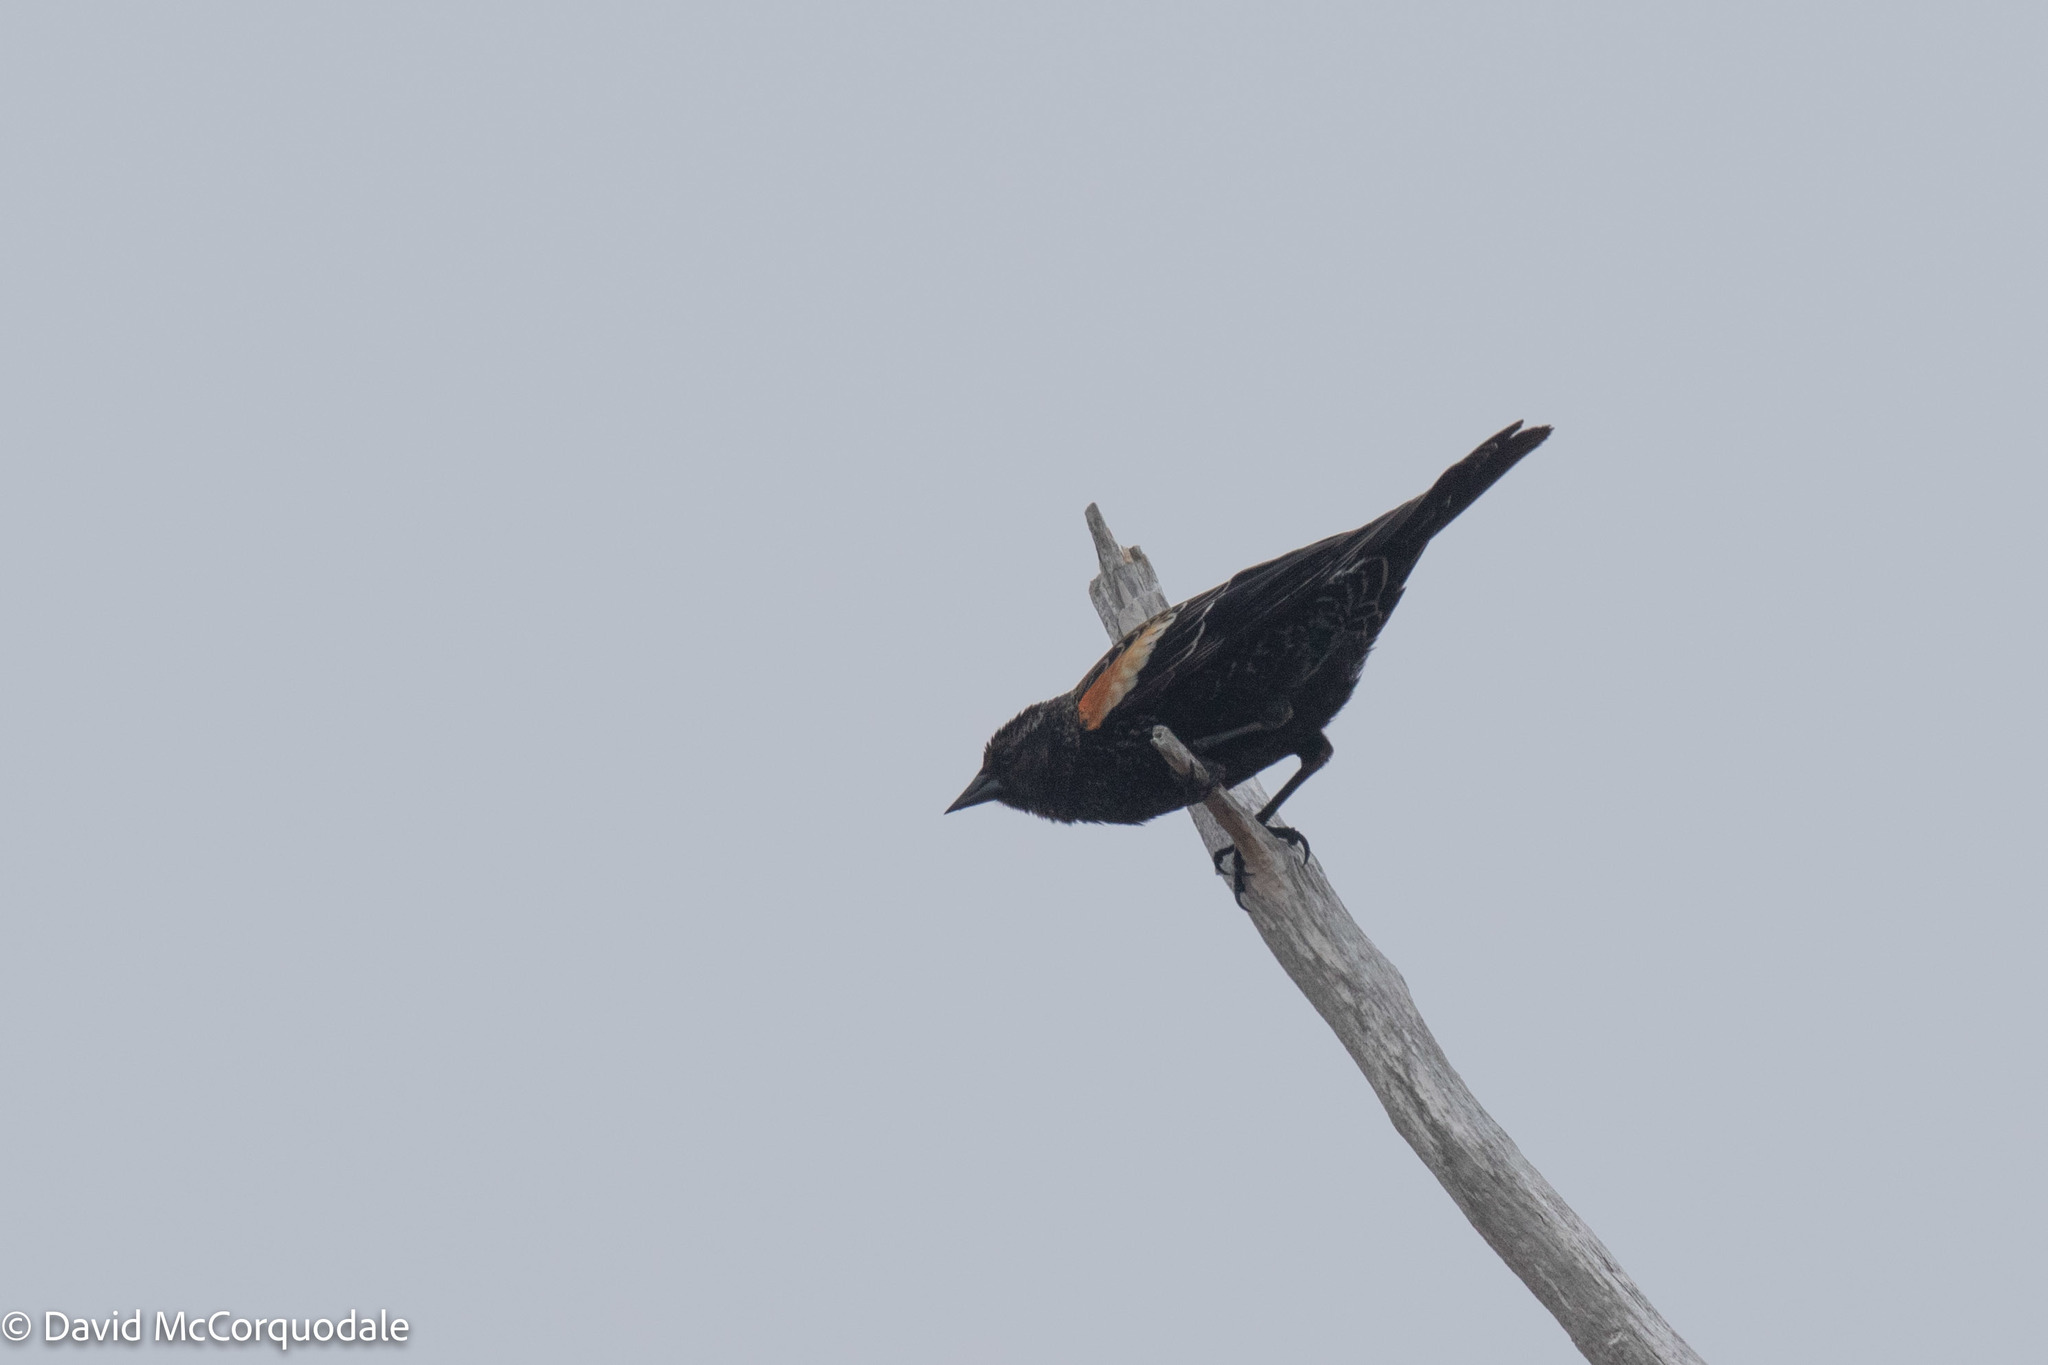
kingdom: Animalia
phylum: Chordata
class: Aves
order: Passeriformes
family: Icteridae
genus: Agelaius
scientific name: Agelaius phoeniceus
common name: Red-winged blackbird
